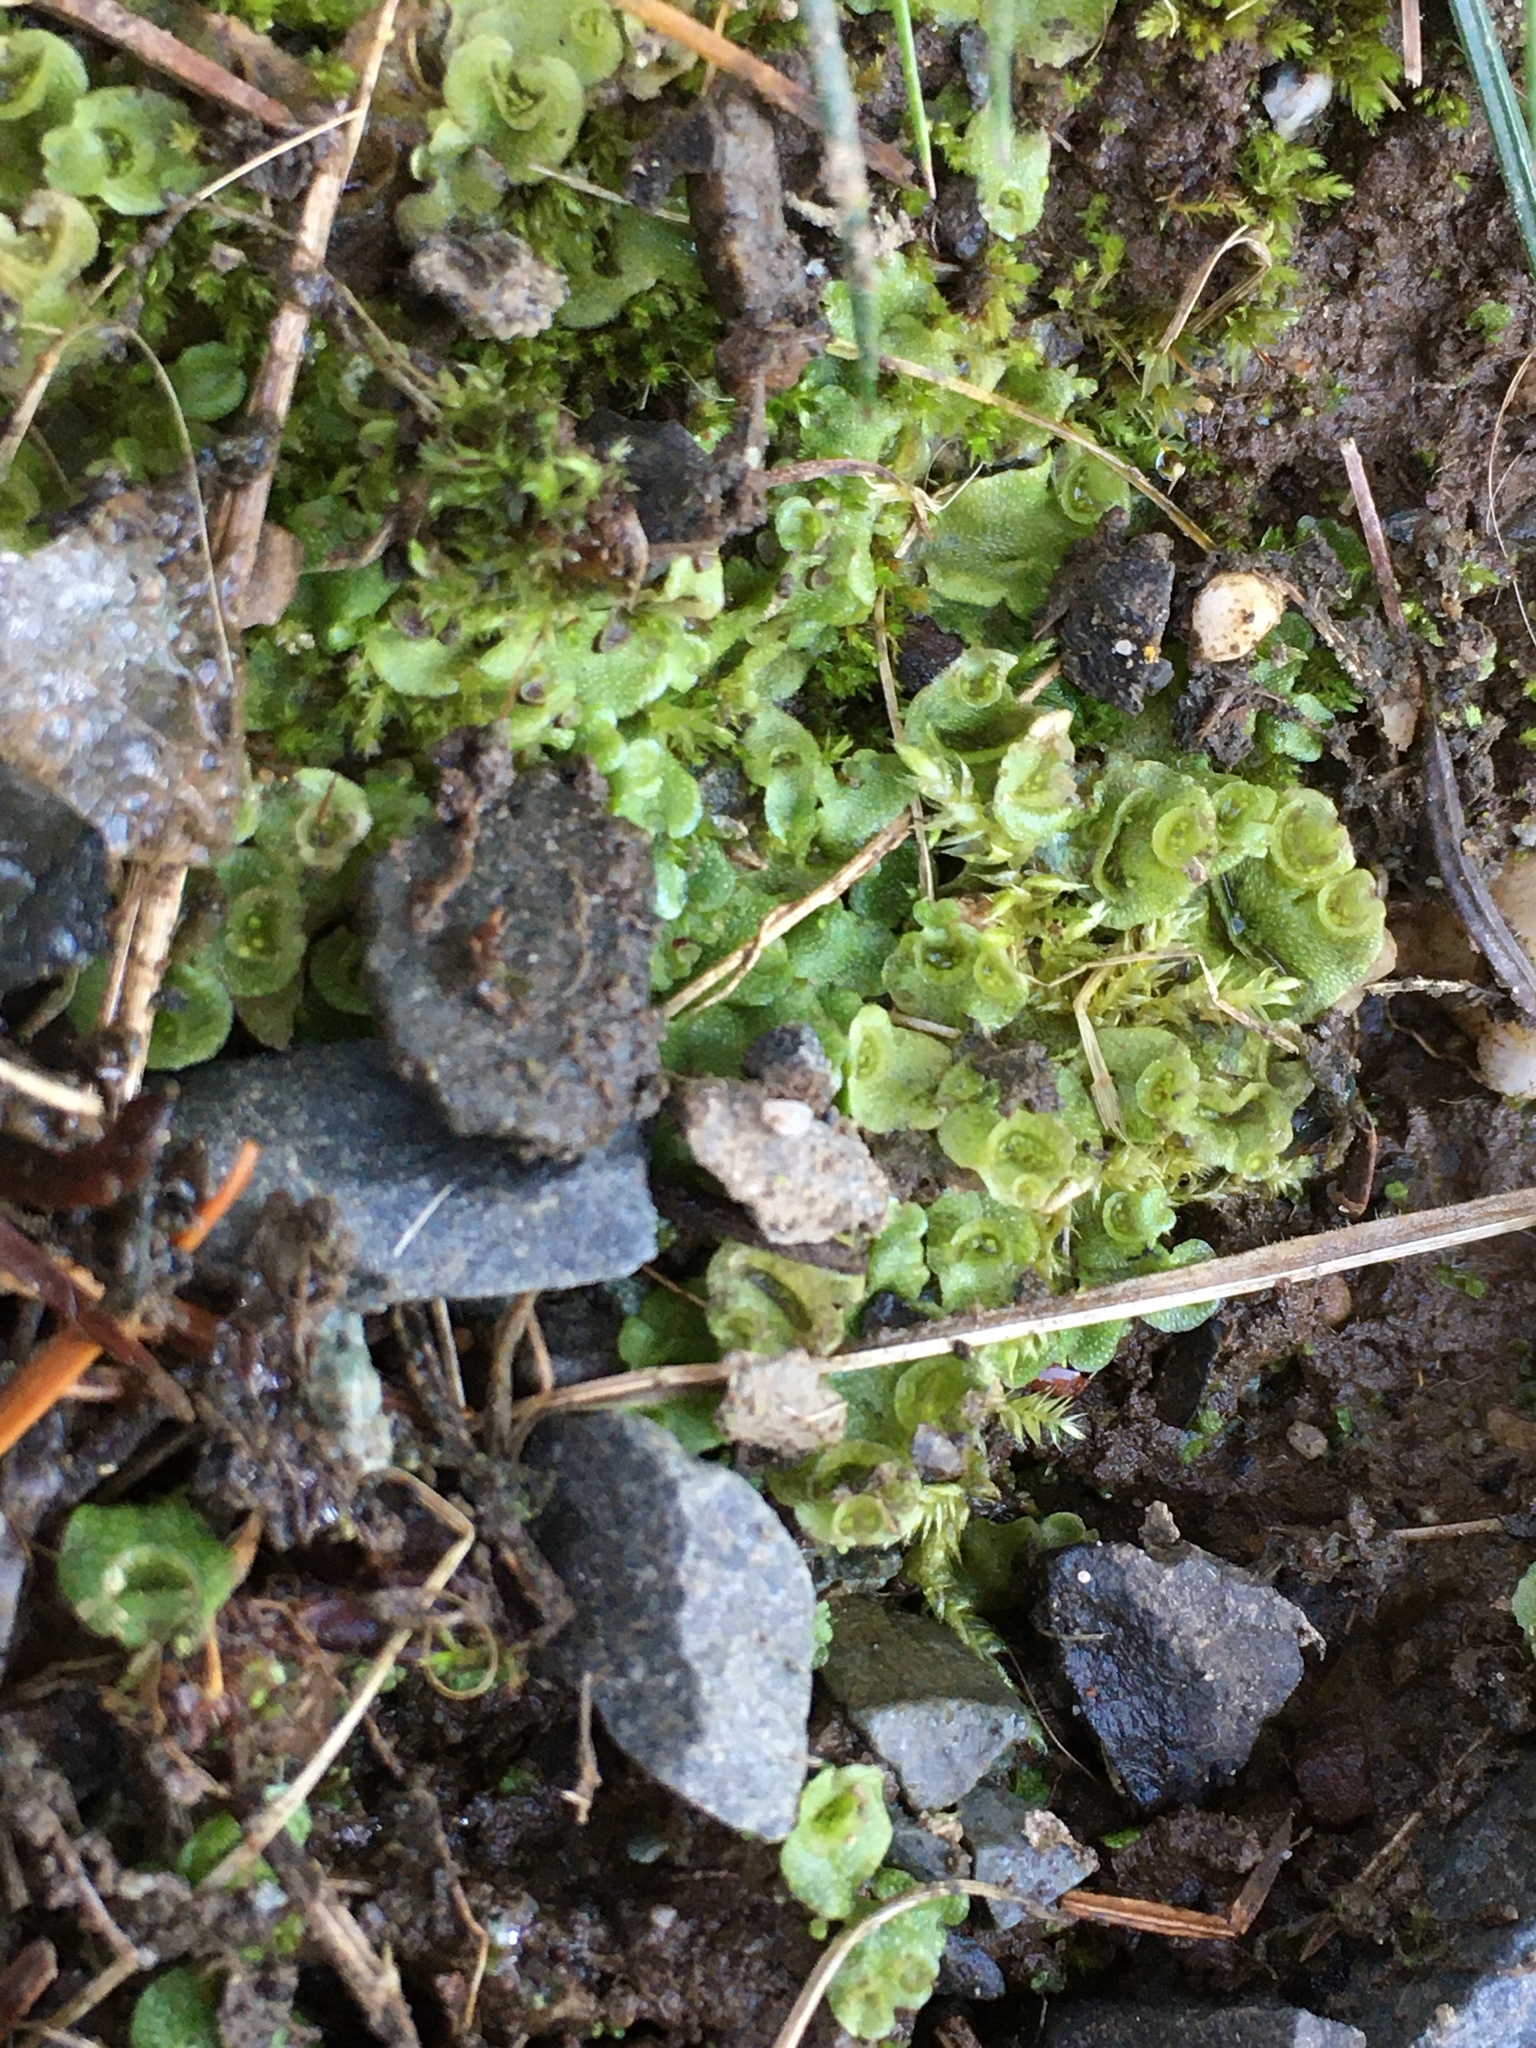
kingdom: Plantae
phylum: Marchantiophyta
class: Marchantiopsida
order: Lunulariales
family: Lunulariaceae
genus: Lunularia
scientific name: Lunularia cruciata
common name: Crescent-cup liverwort
